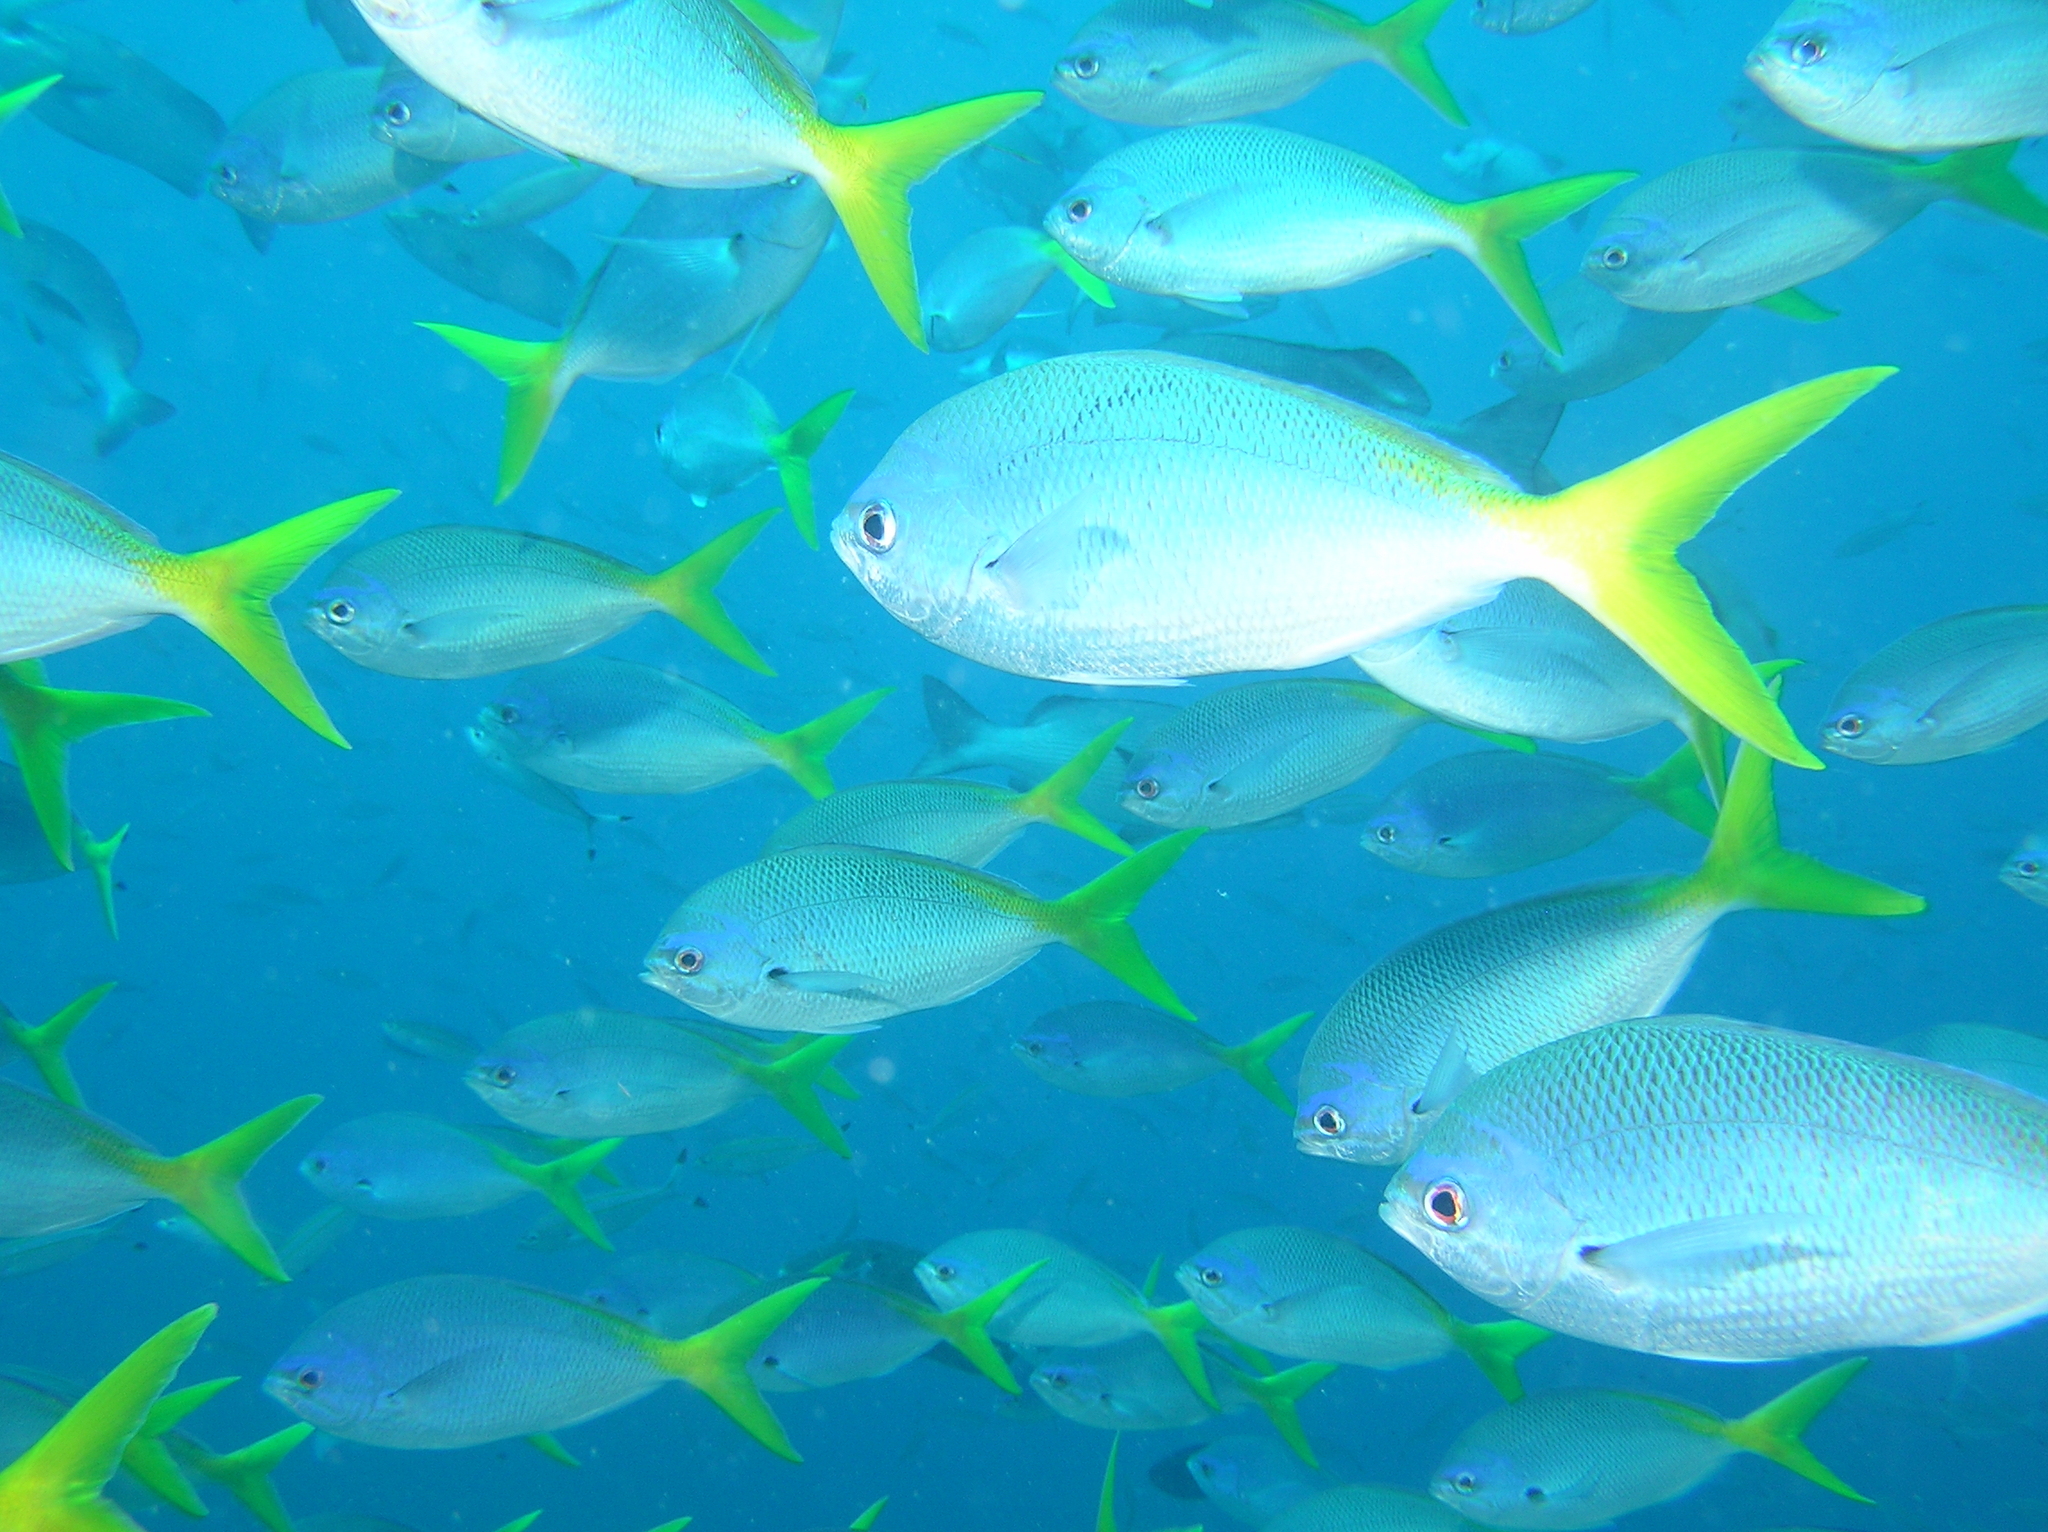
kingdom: Animalia
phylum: Chordata
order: Perciformes
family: Caesionidae
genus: Caesio
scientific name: Caesio cuning
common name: Red-bellied fusilier
